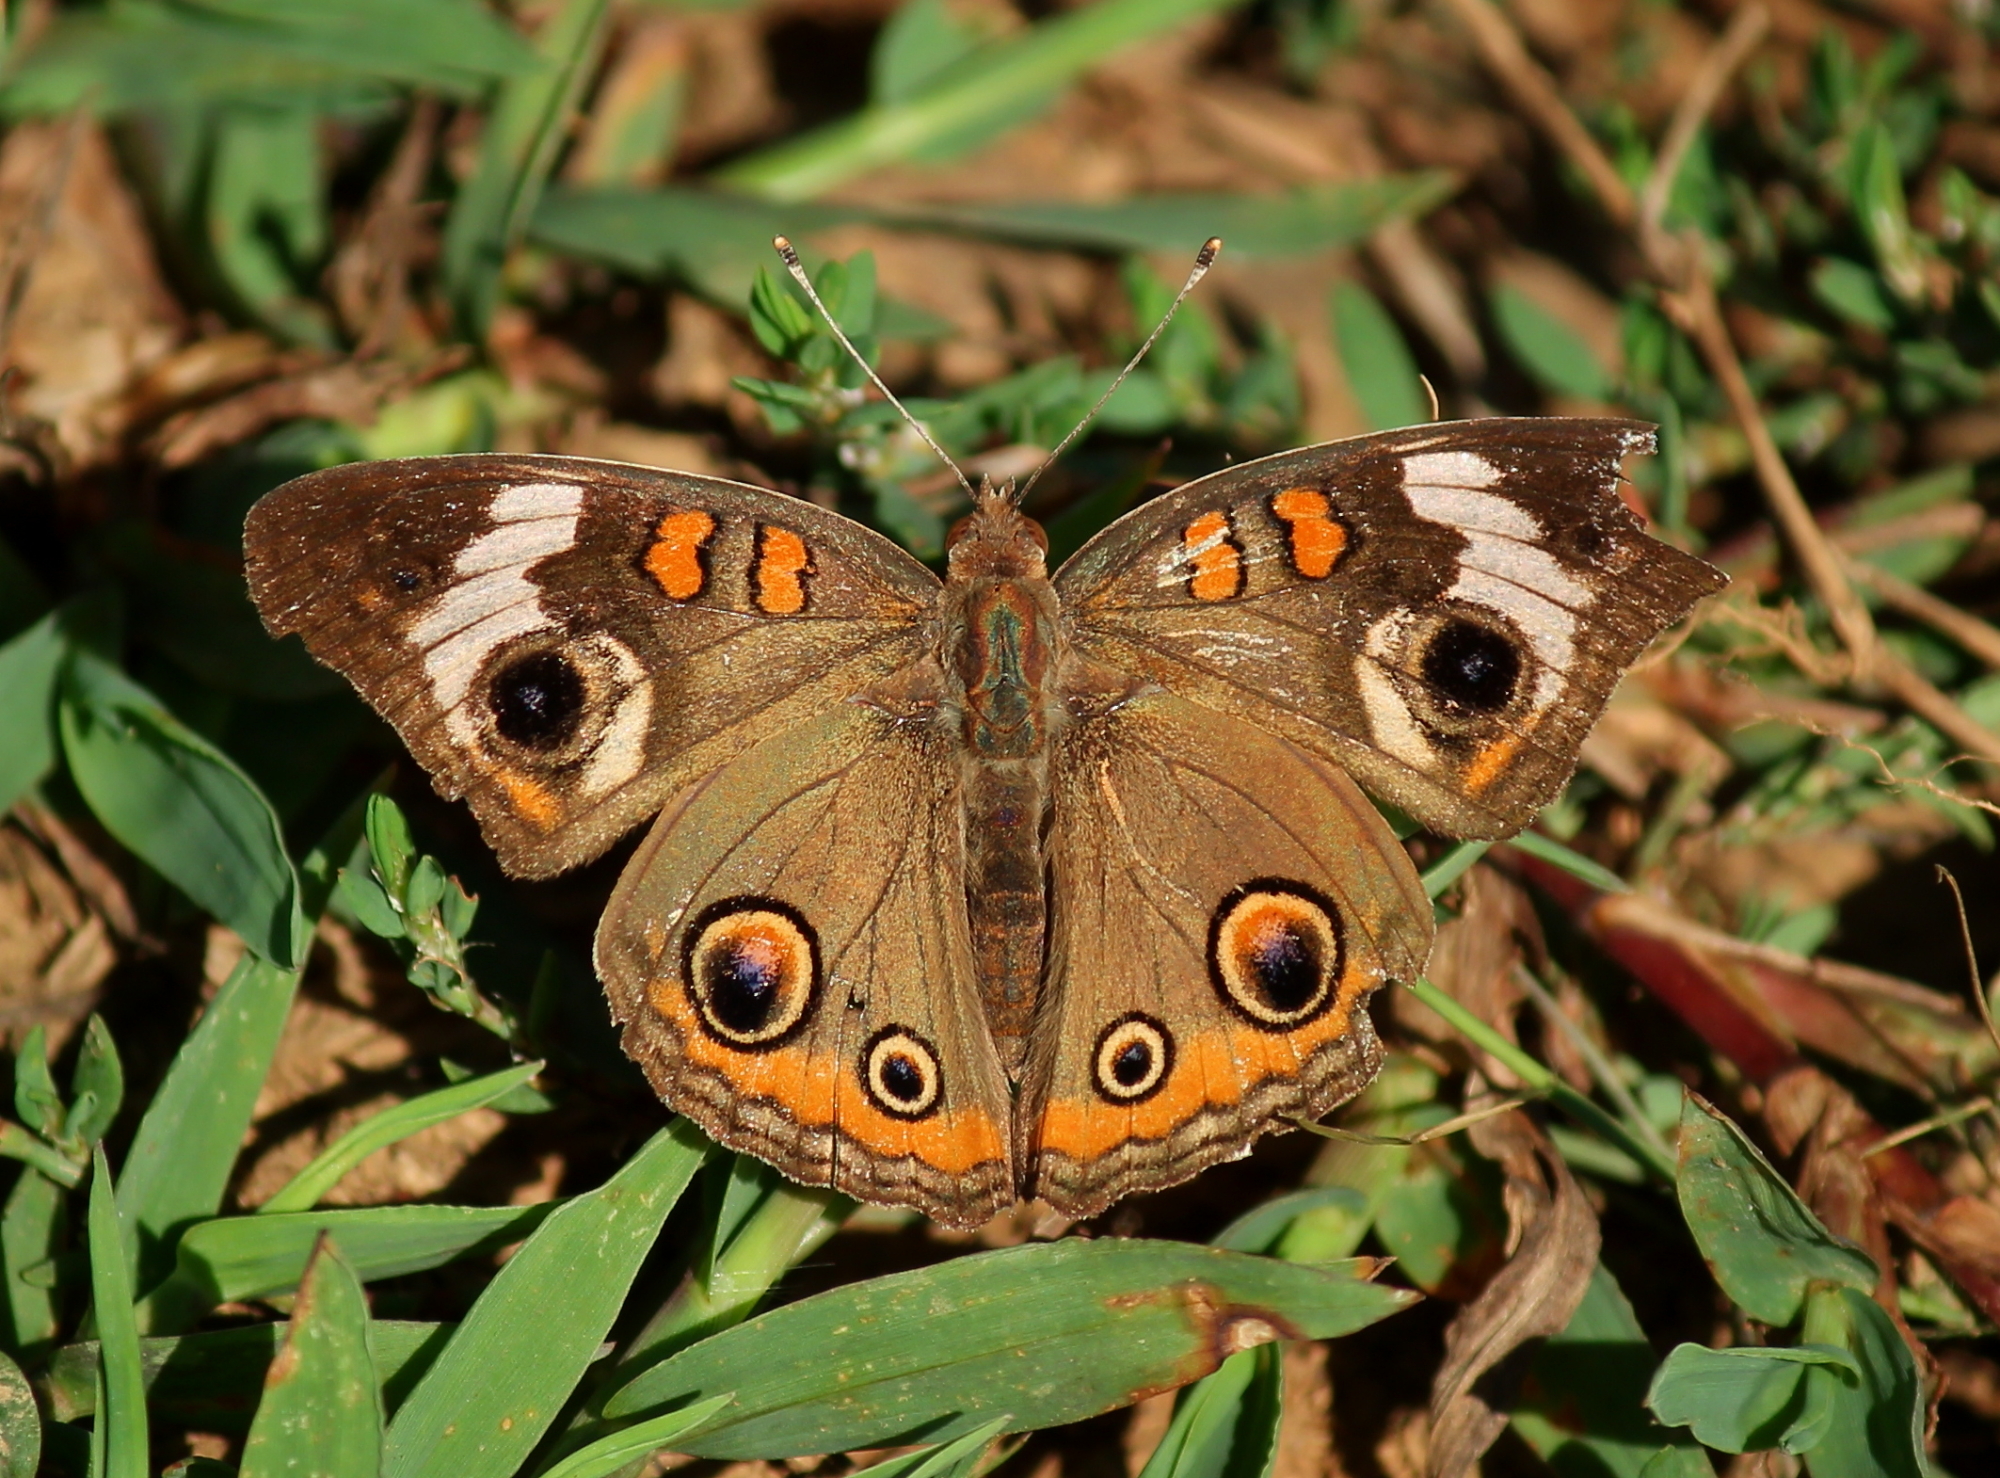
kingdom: Animalia
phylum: Arthropoda
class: Insecta
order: Lepidoptera
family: Nymphalidae
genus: Junonia
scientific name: Junonia coenia
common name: Common buckeye
